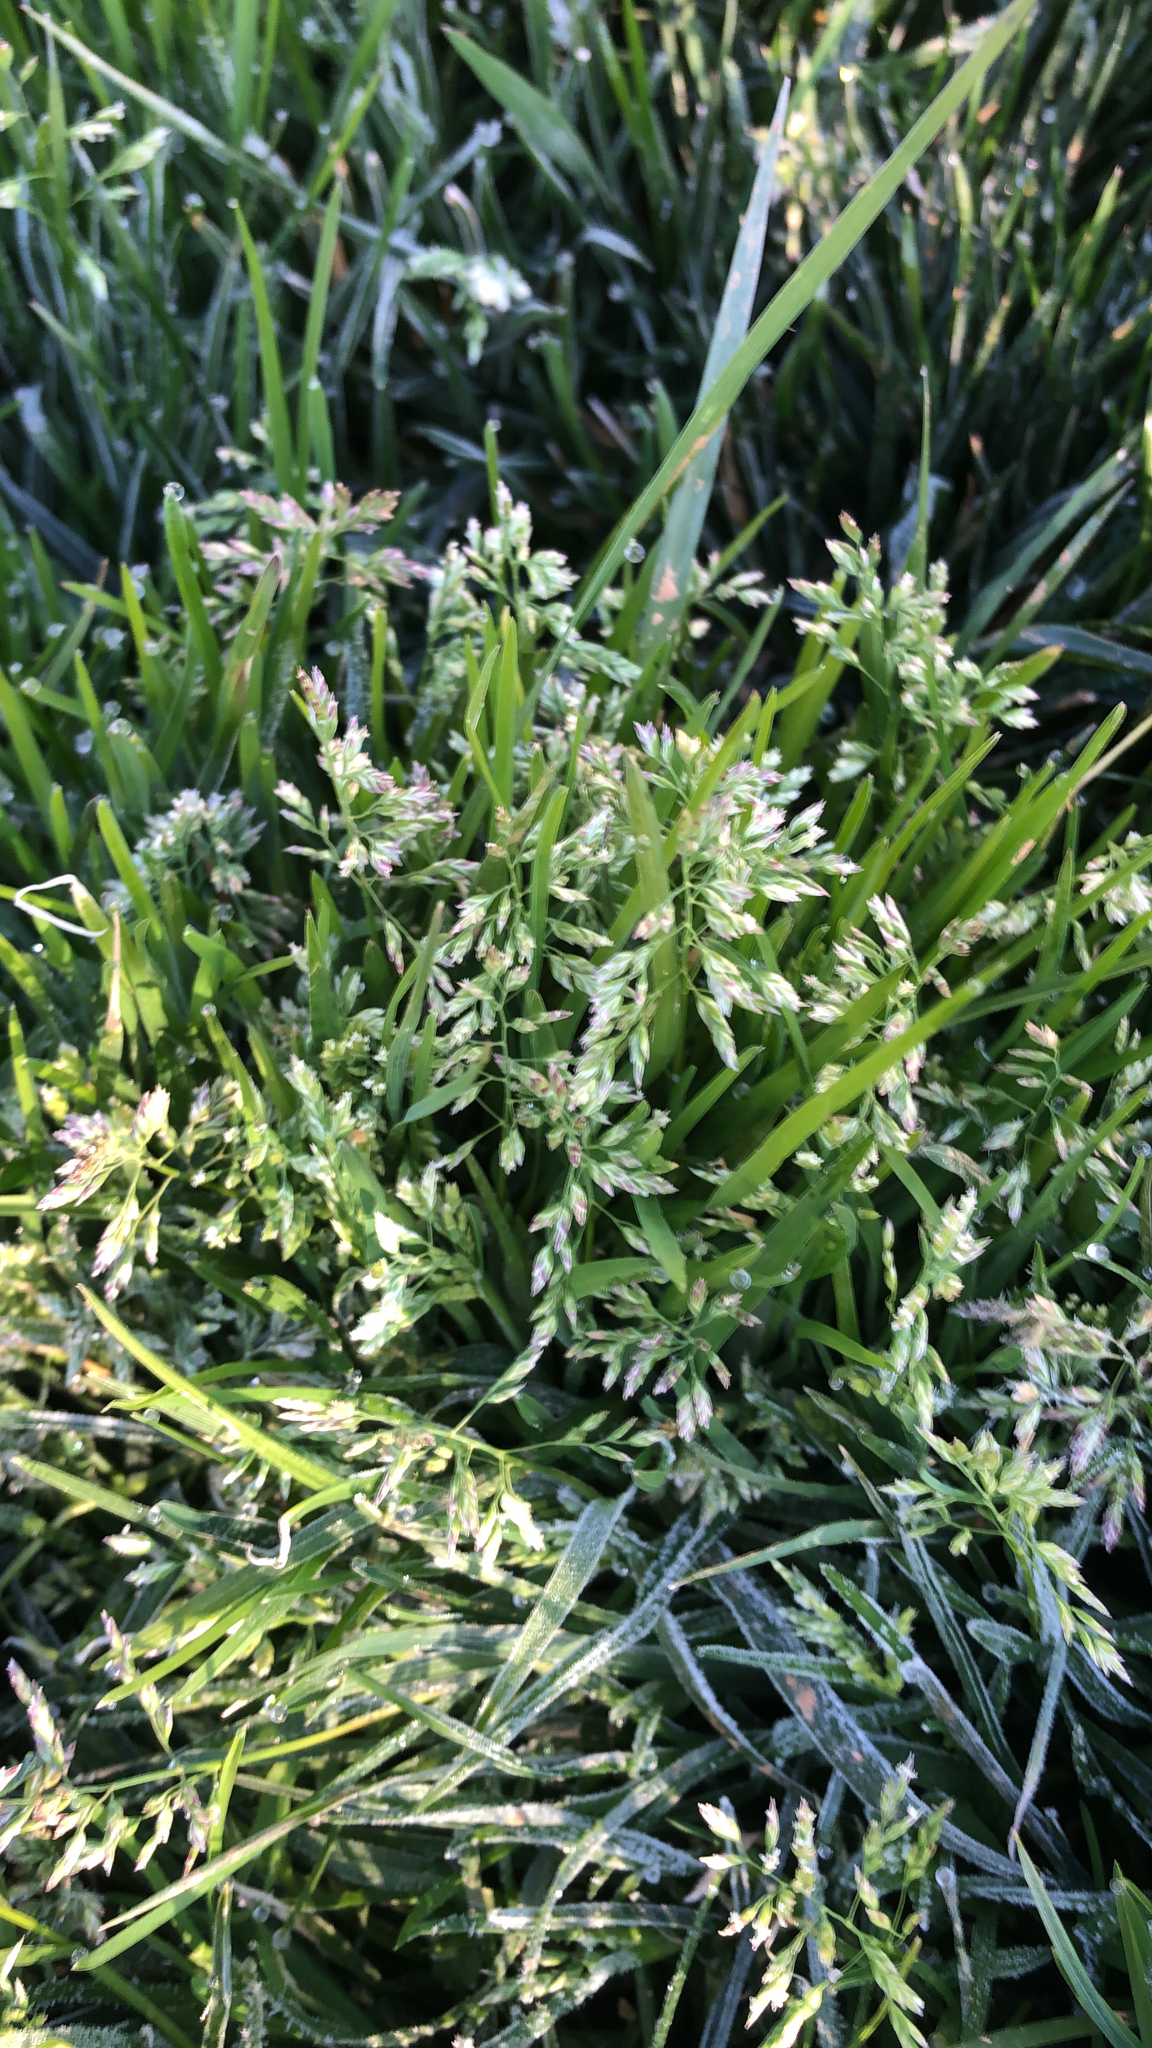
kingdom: Plantae
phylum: Tracheophyta
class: Liliopsida
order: Poales
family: Poaceae
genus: Poa
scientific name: Poa annua
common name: Annual bluegrass
